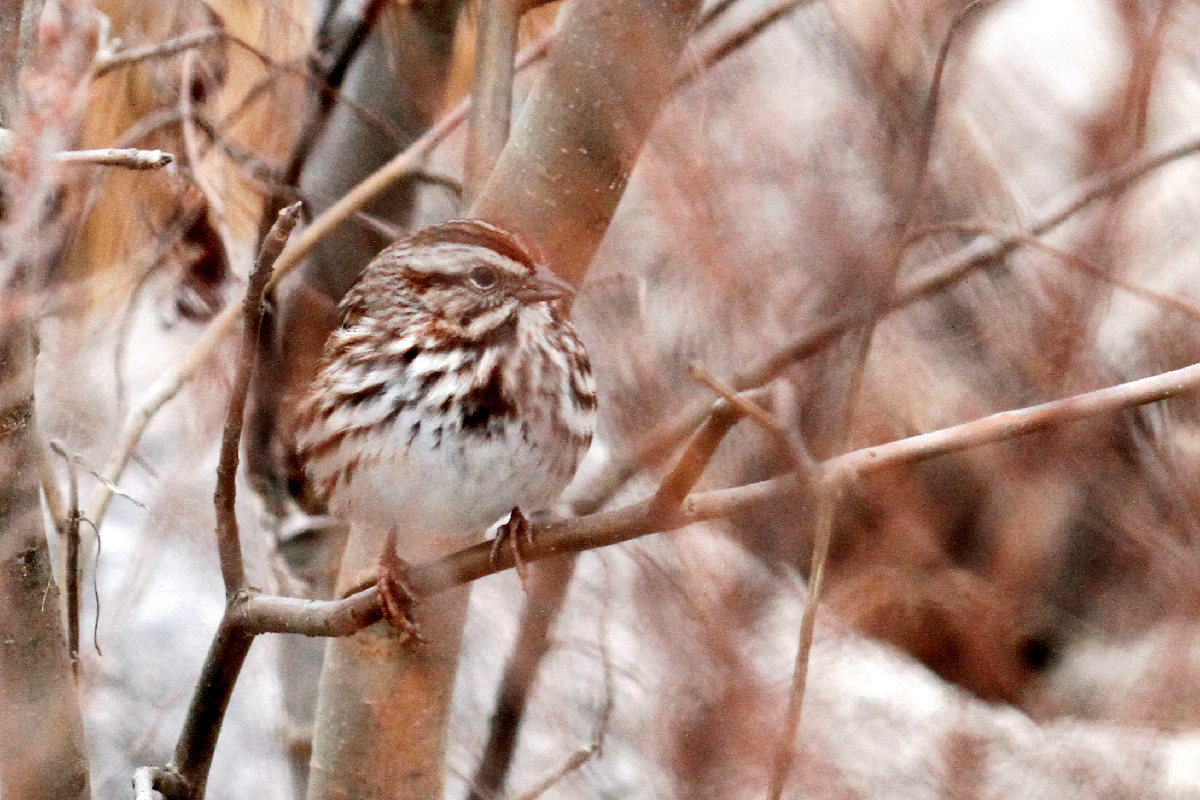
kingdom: Animalia
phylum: Chordata
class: Aves
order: Passeriformes
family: Passerellidae
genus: Melospiza
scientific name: Melospiza melodia
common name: Song sparrow
